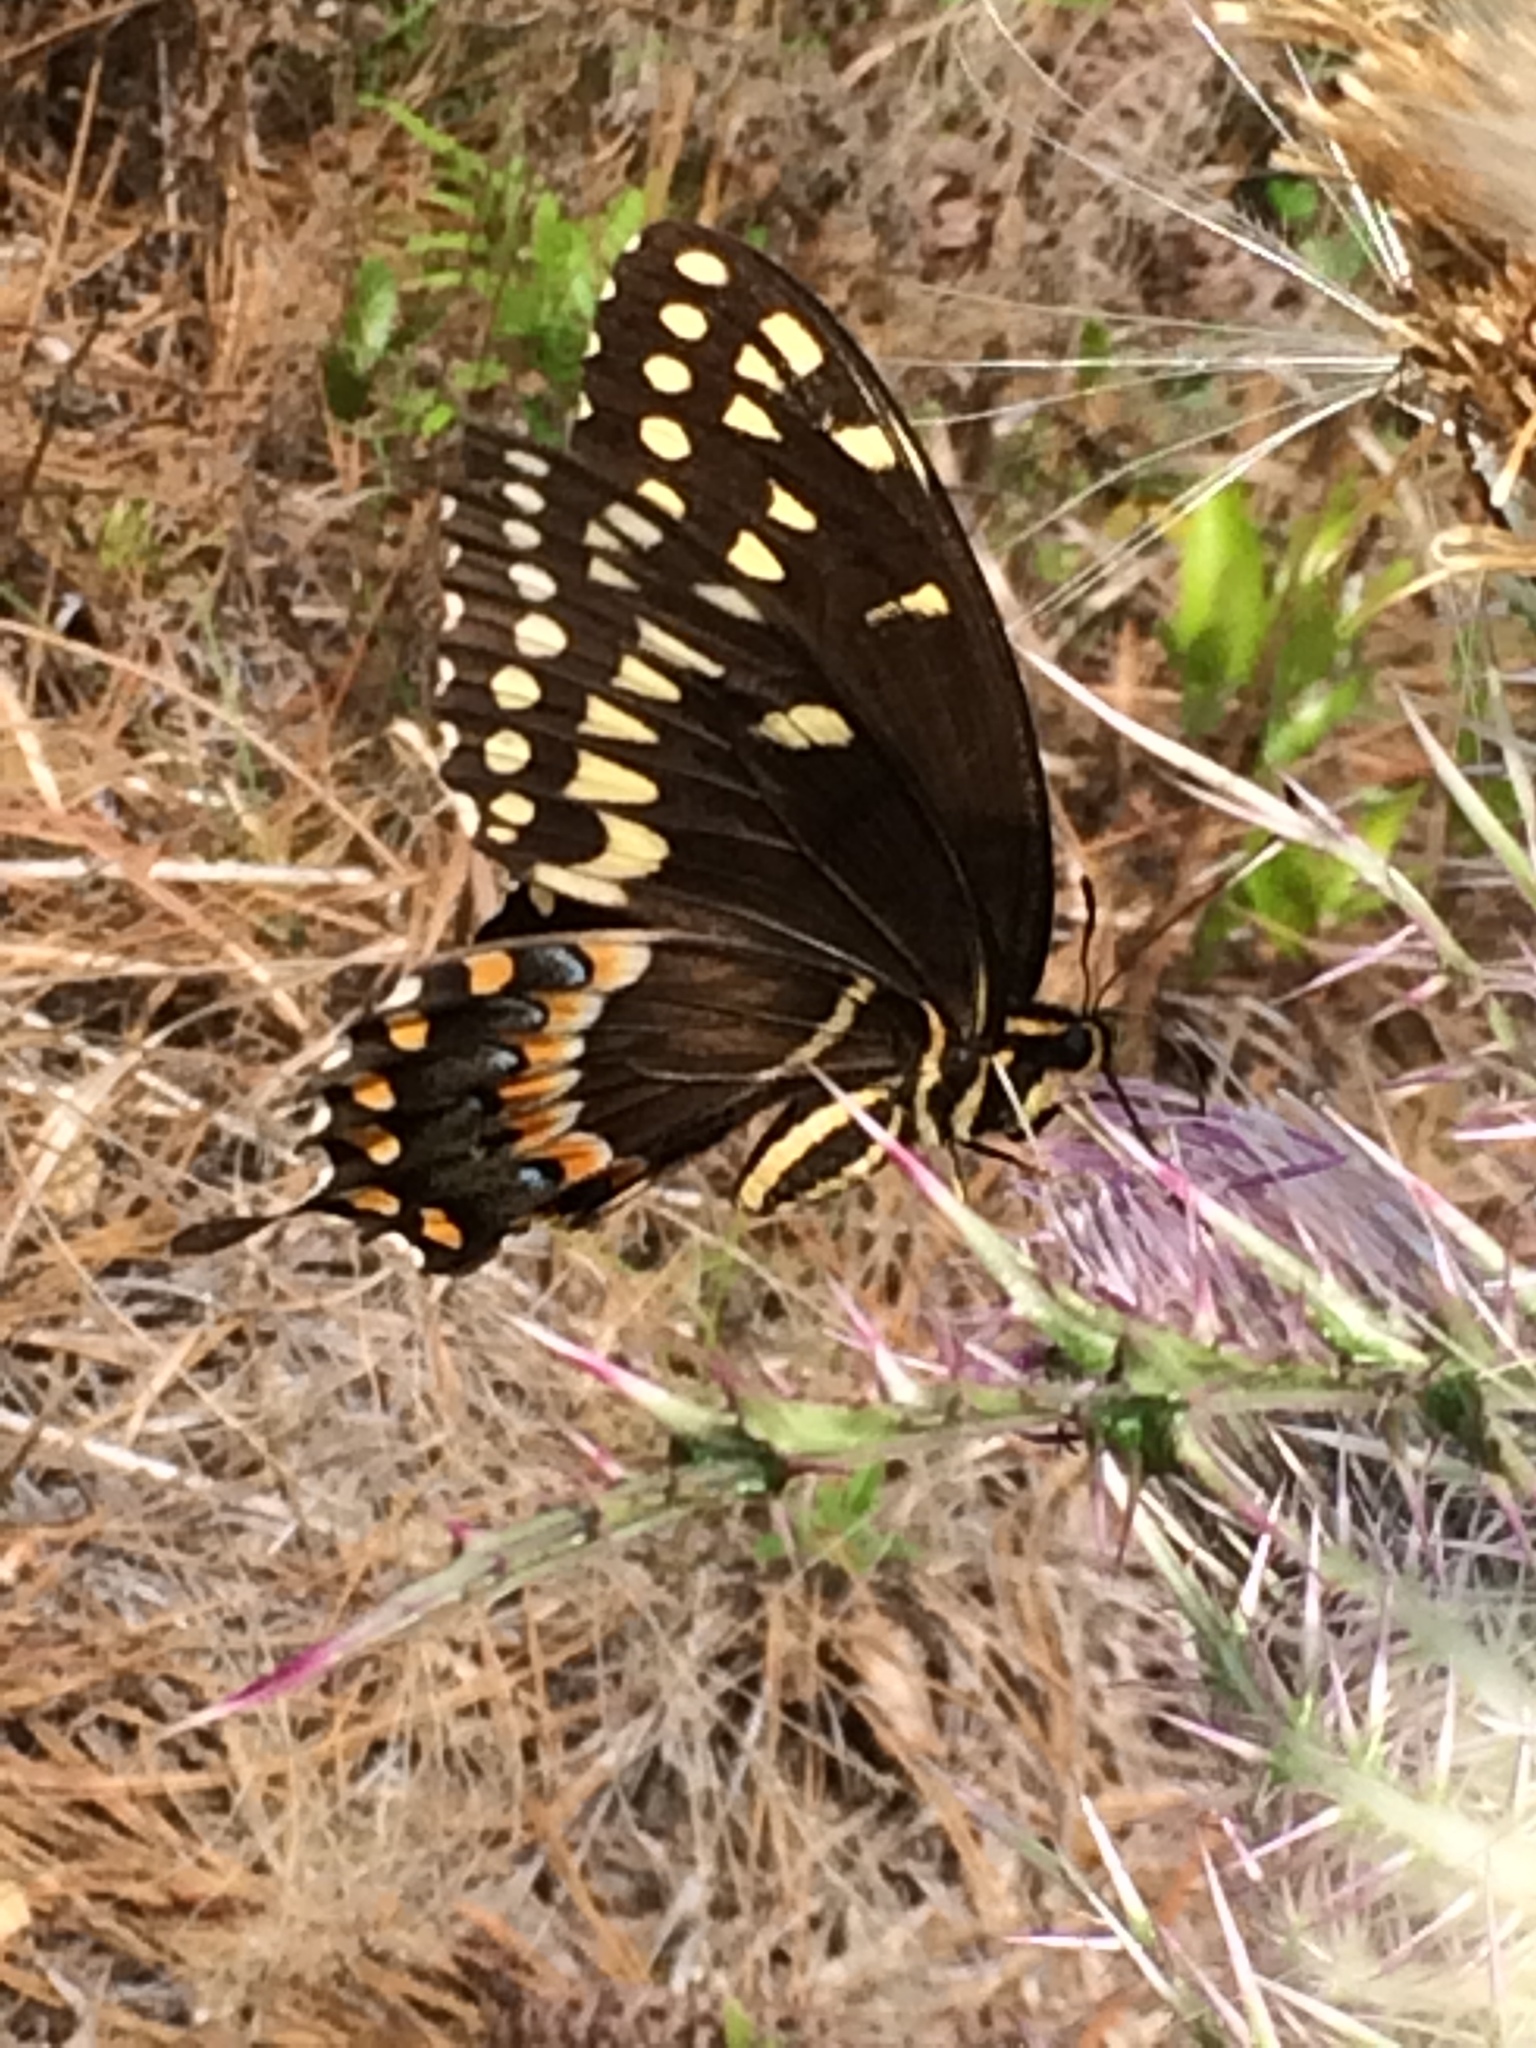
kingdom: Animalia
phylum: Arthropoda
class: Insecta
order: Lepidoptera
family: Papilionidae
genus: Papilio
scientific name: Papilio palamedes
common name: Palamedes swallowtail
